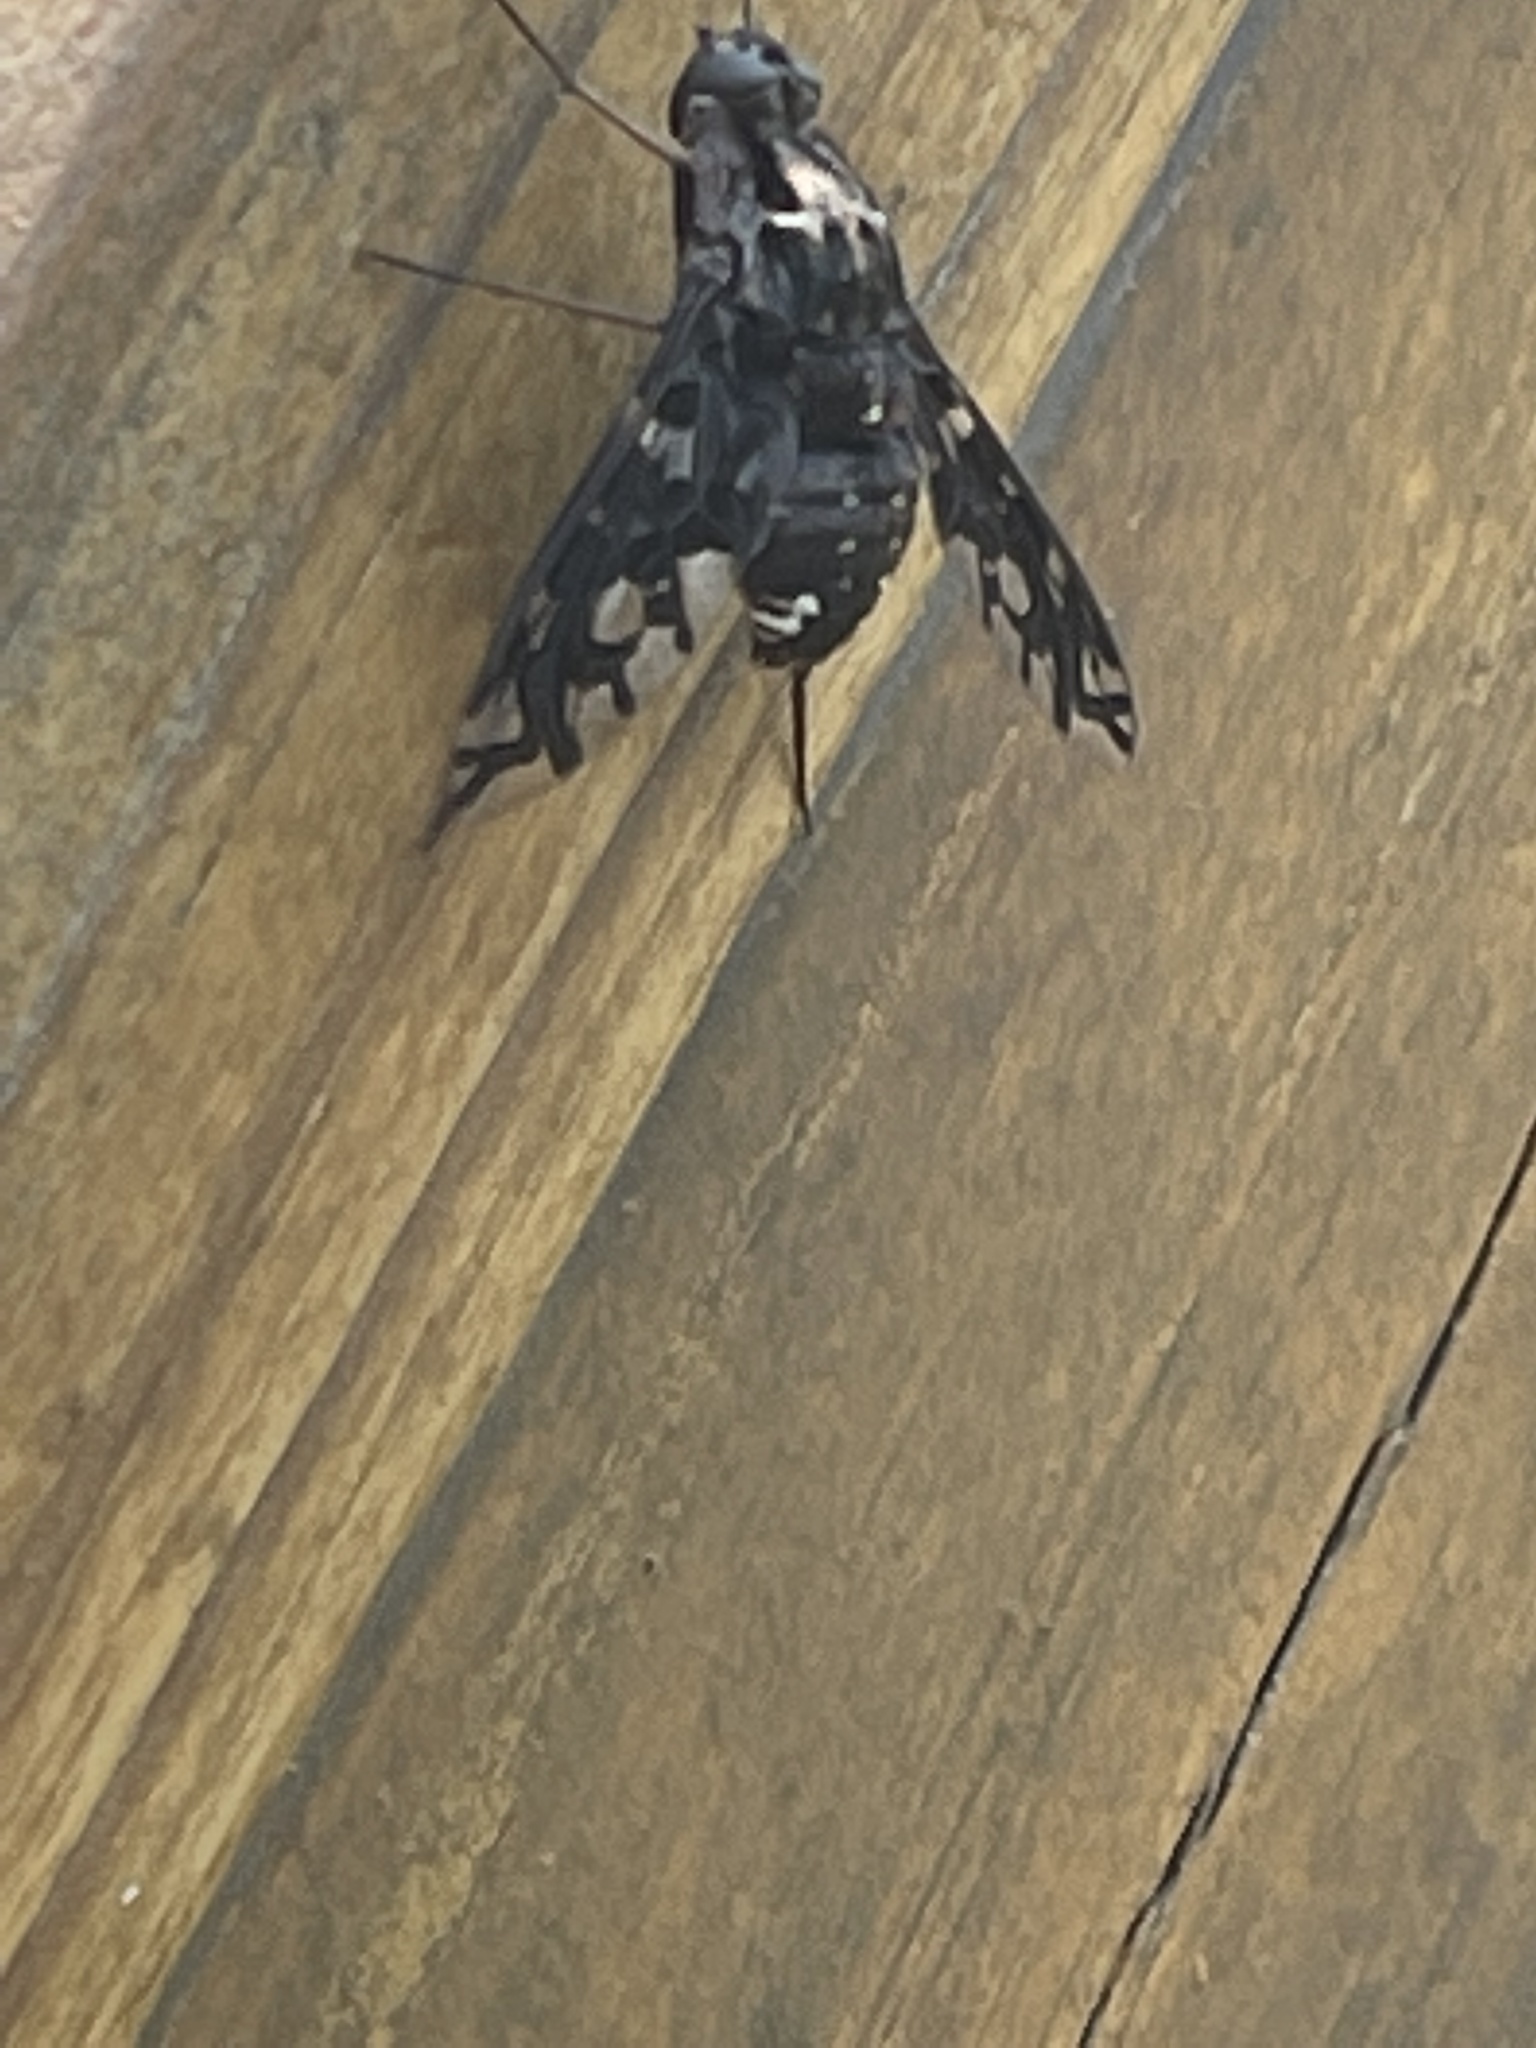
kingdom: Animalia
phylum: Arthropoda
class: Insecta
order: Diptera
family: Bombyliidae
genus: Xenox
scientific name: Xenox tigrinus
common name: Tiger bee fly
